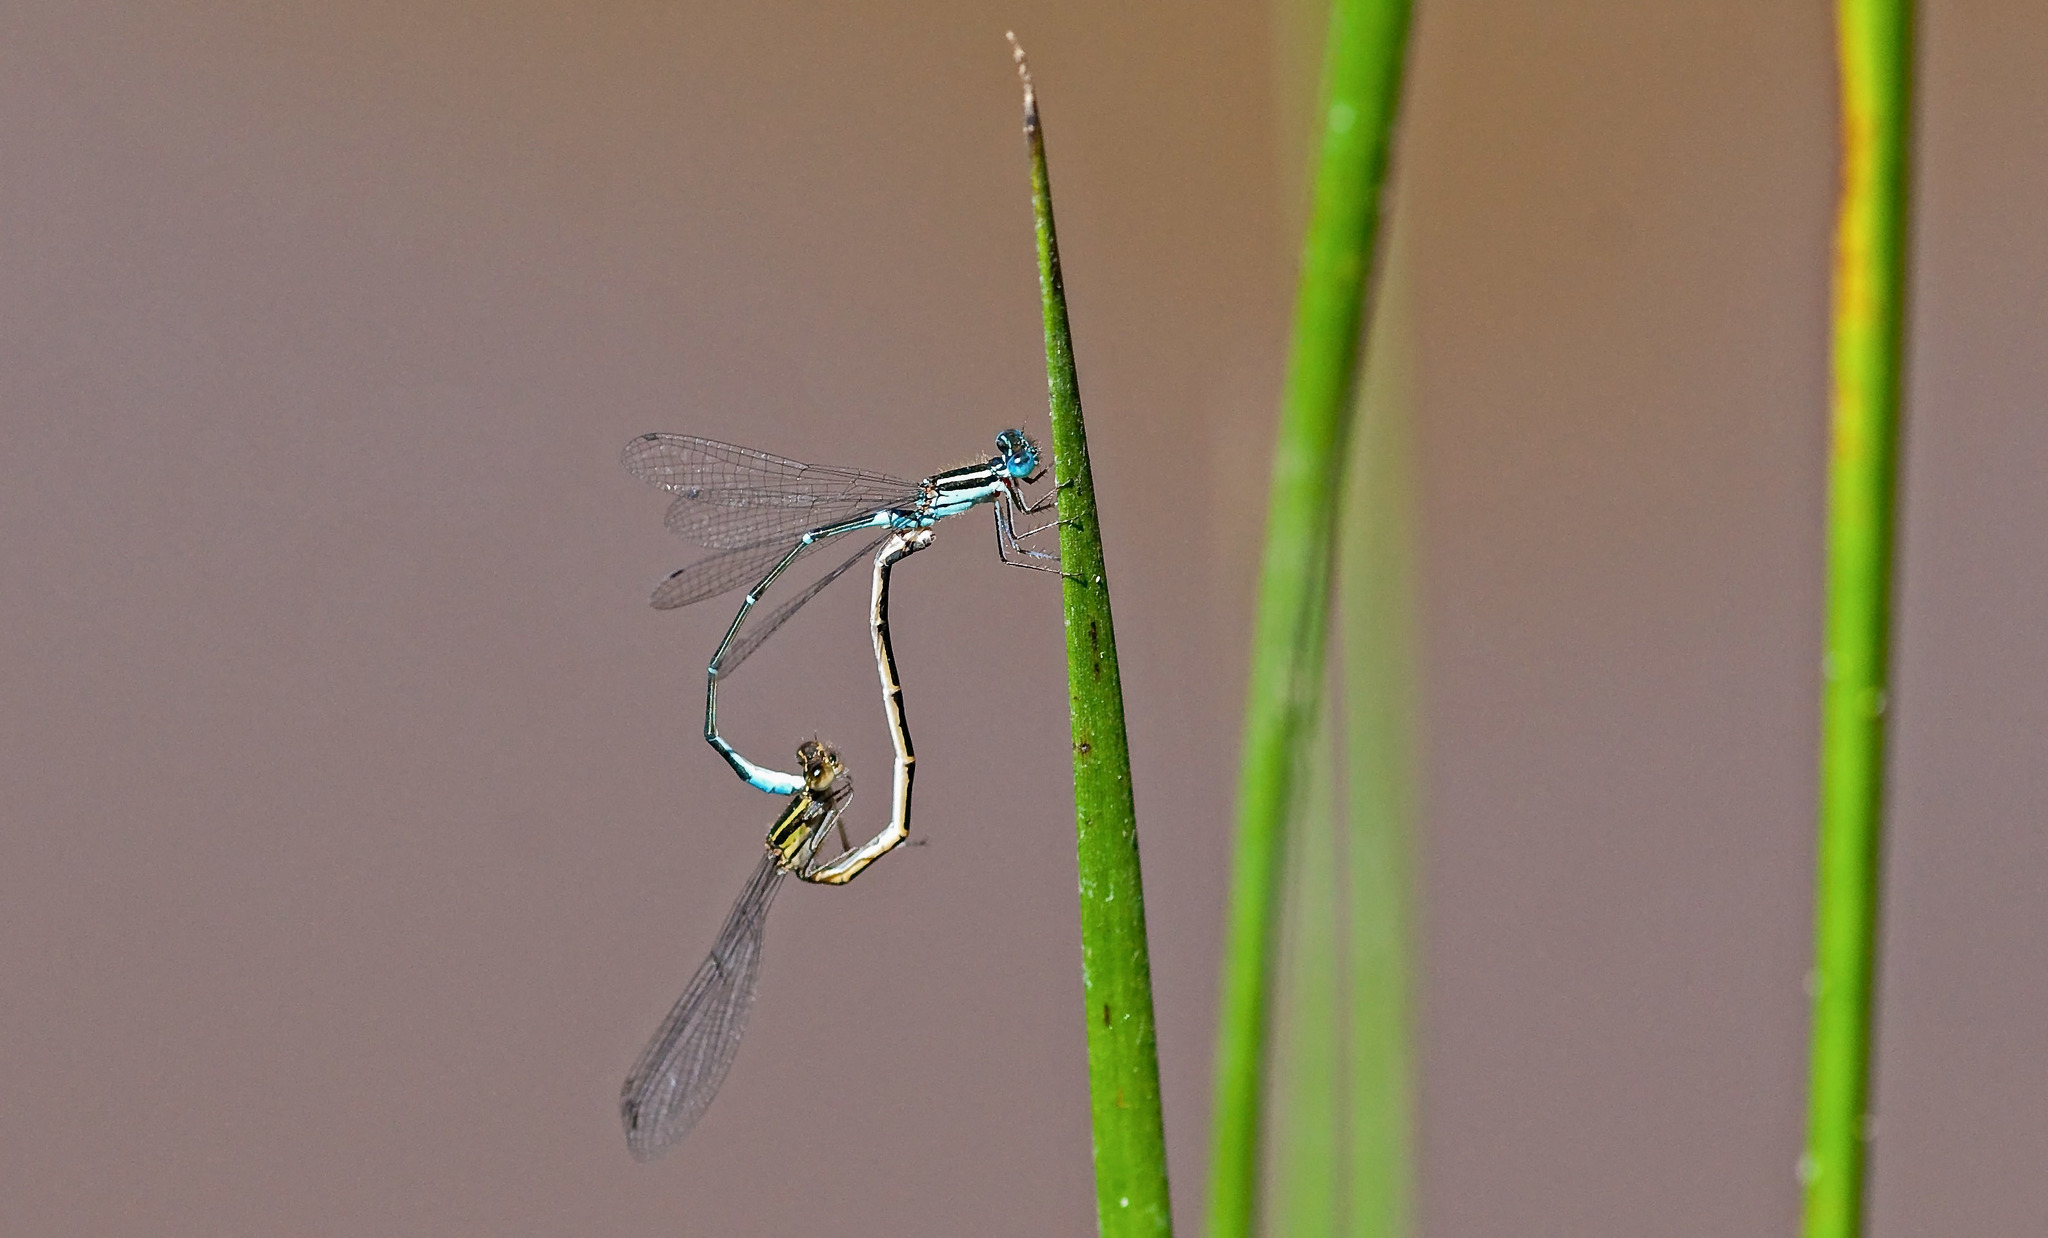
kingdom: Animalia
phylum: Arthropoda
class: Insecta
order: Odonata
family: Coenagrionidae
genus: Austroagrion
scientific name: Austroagrion watsoni
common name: Eastern billabongfly
